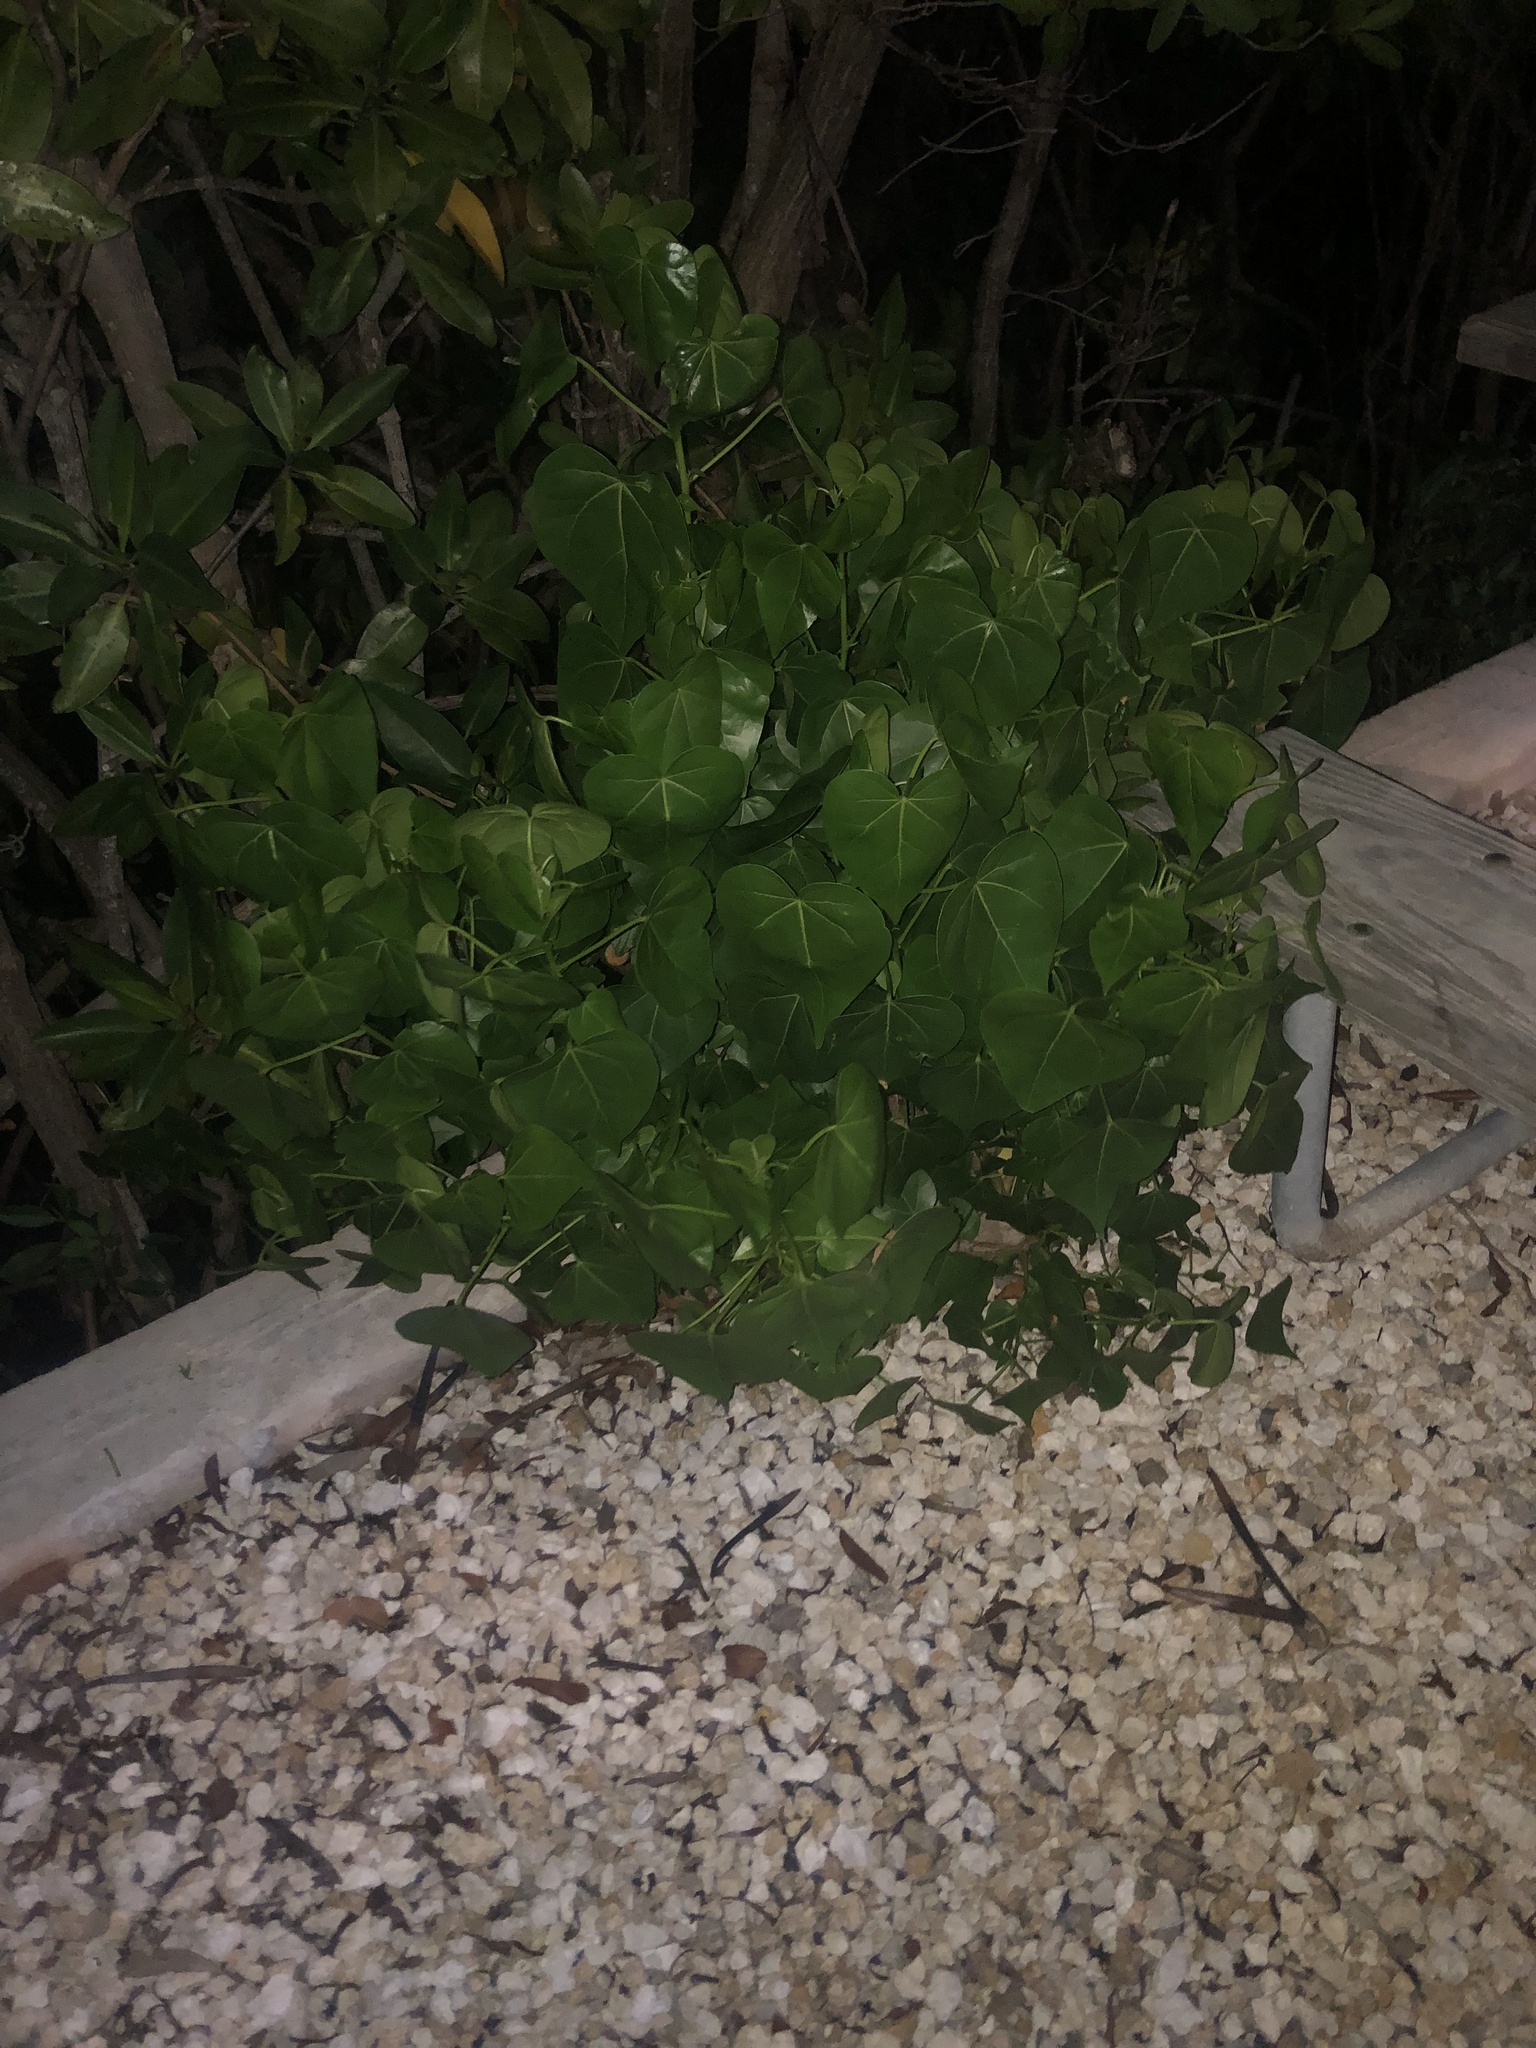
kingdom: Plantae
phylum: Tracheophyta
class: Magnoliopsida
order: Malvales
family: Malvaceae
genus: Thespesia
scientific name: Thespesia populnea
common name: Seaside mahoe
